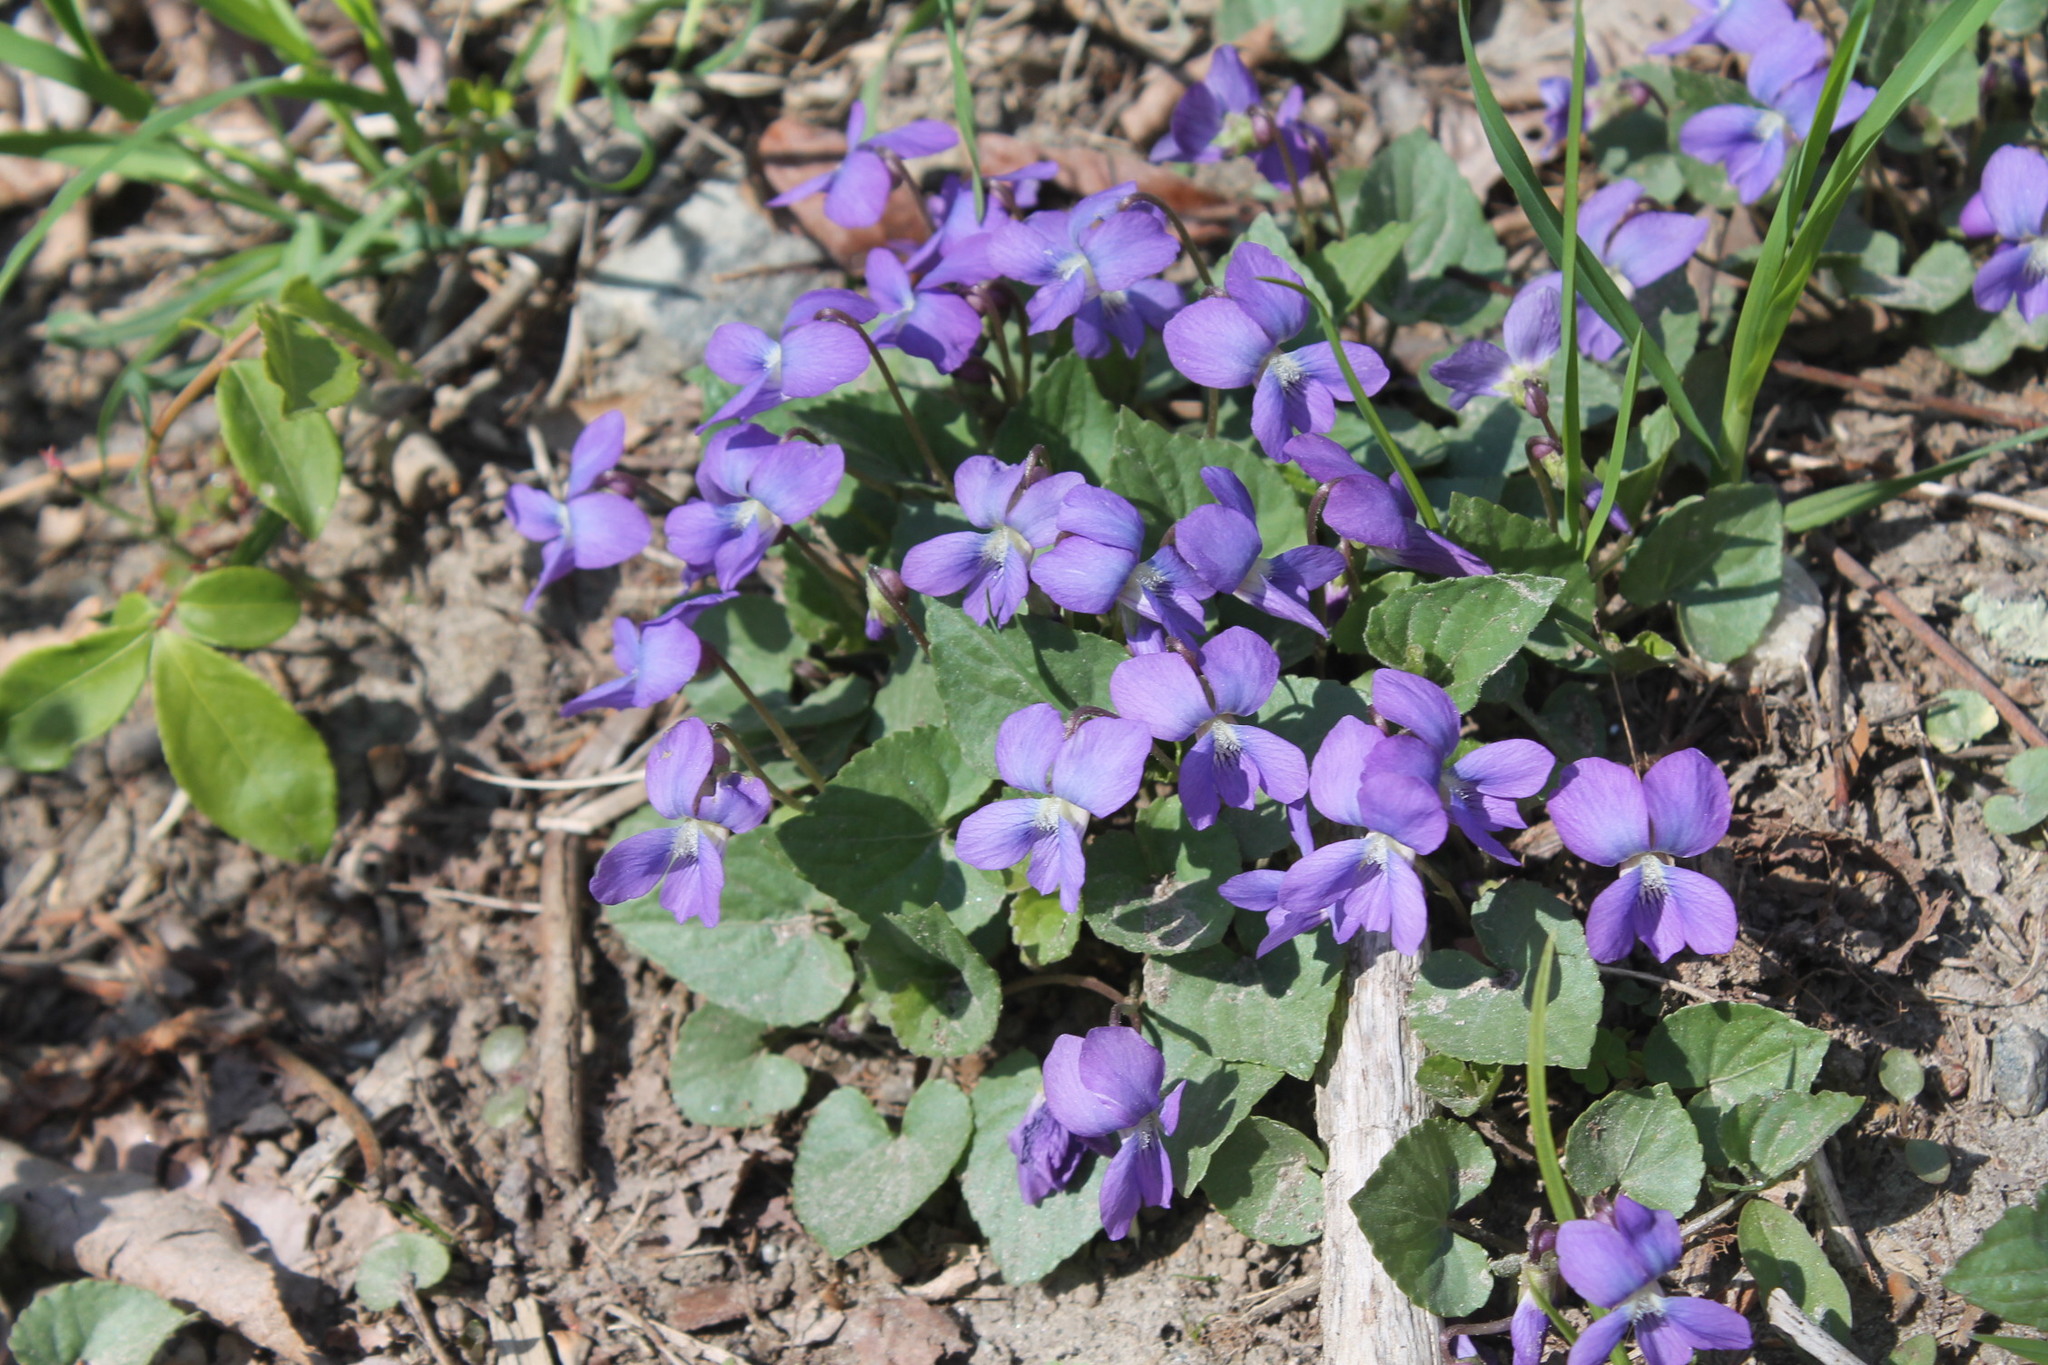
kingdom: Plantae
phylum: Tracheophyta
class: Magnoliopsida
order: Malpighiales
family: Violaceae
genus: Viola
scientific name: Viola sororia
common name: Dooryard violet
